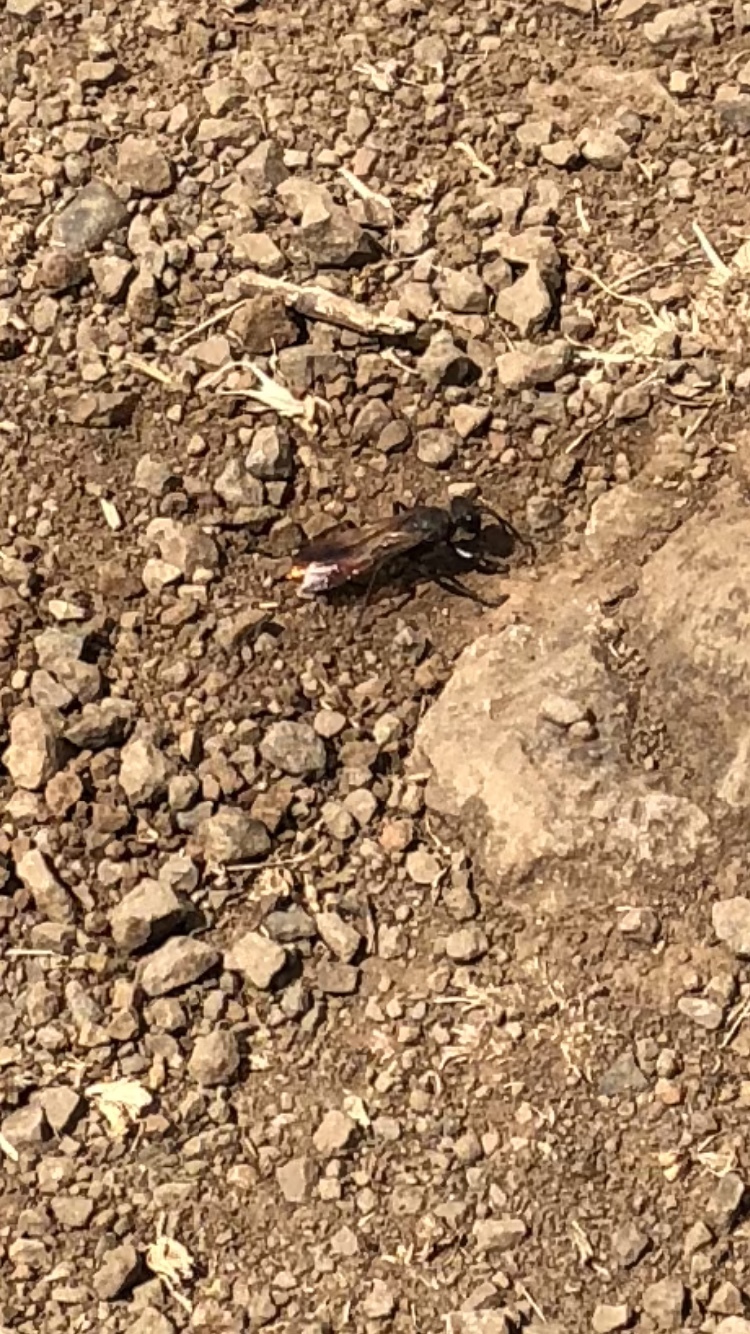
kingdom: Animalia
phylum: Arthropoda
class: Insecta
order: Hymenoptera
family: Sphecidae
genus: Sphex
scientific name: Sphex lucae
